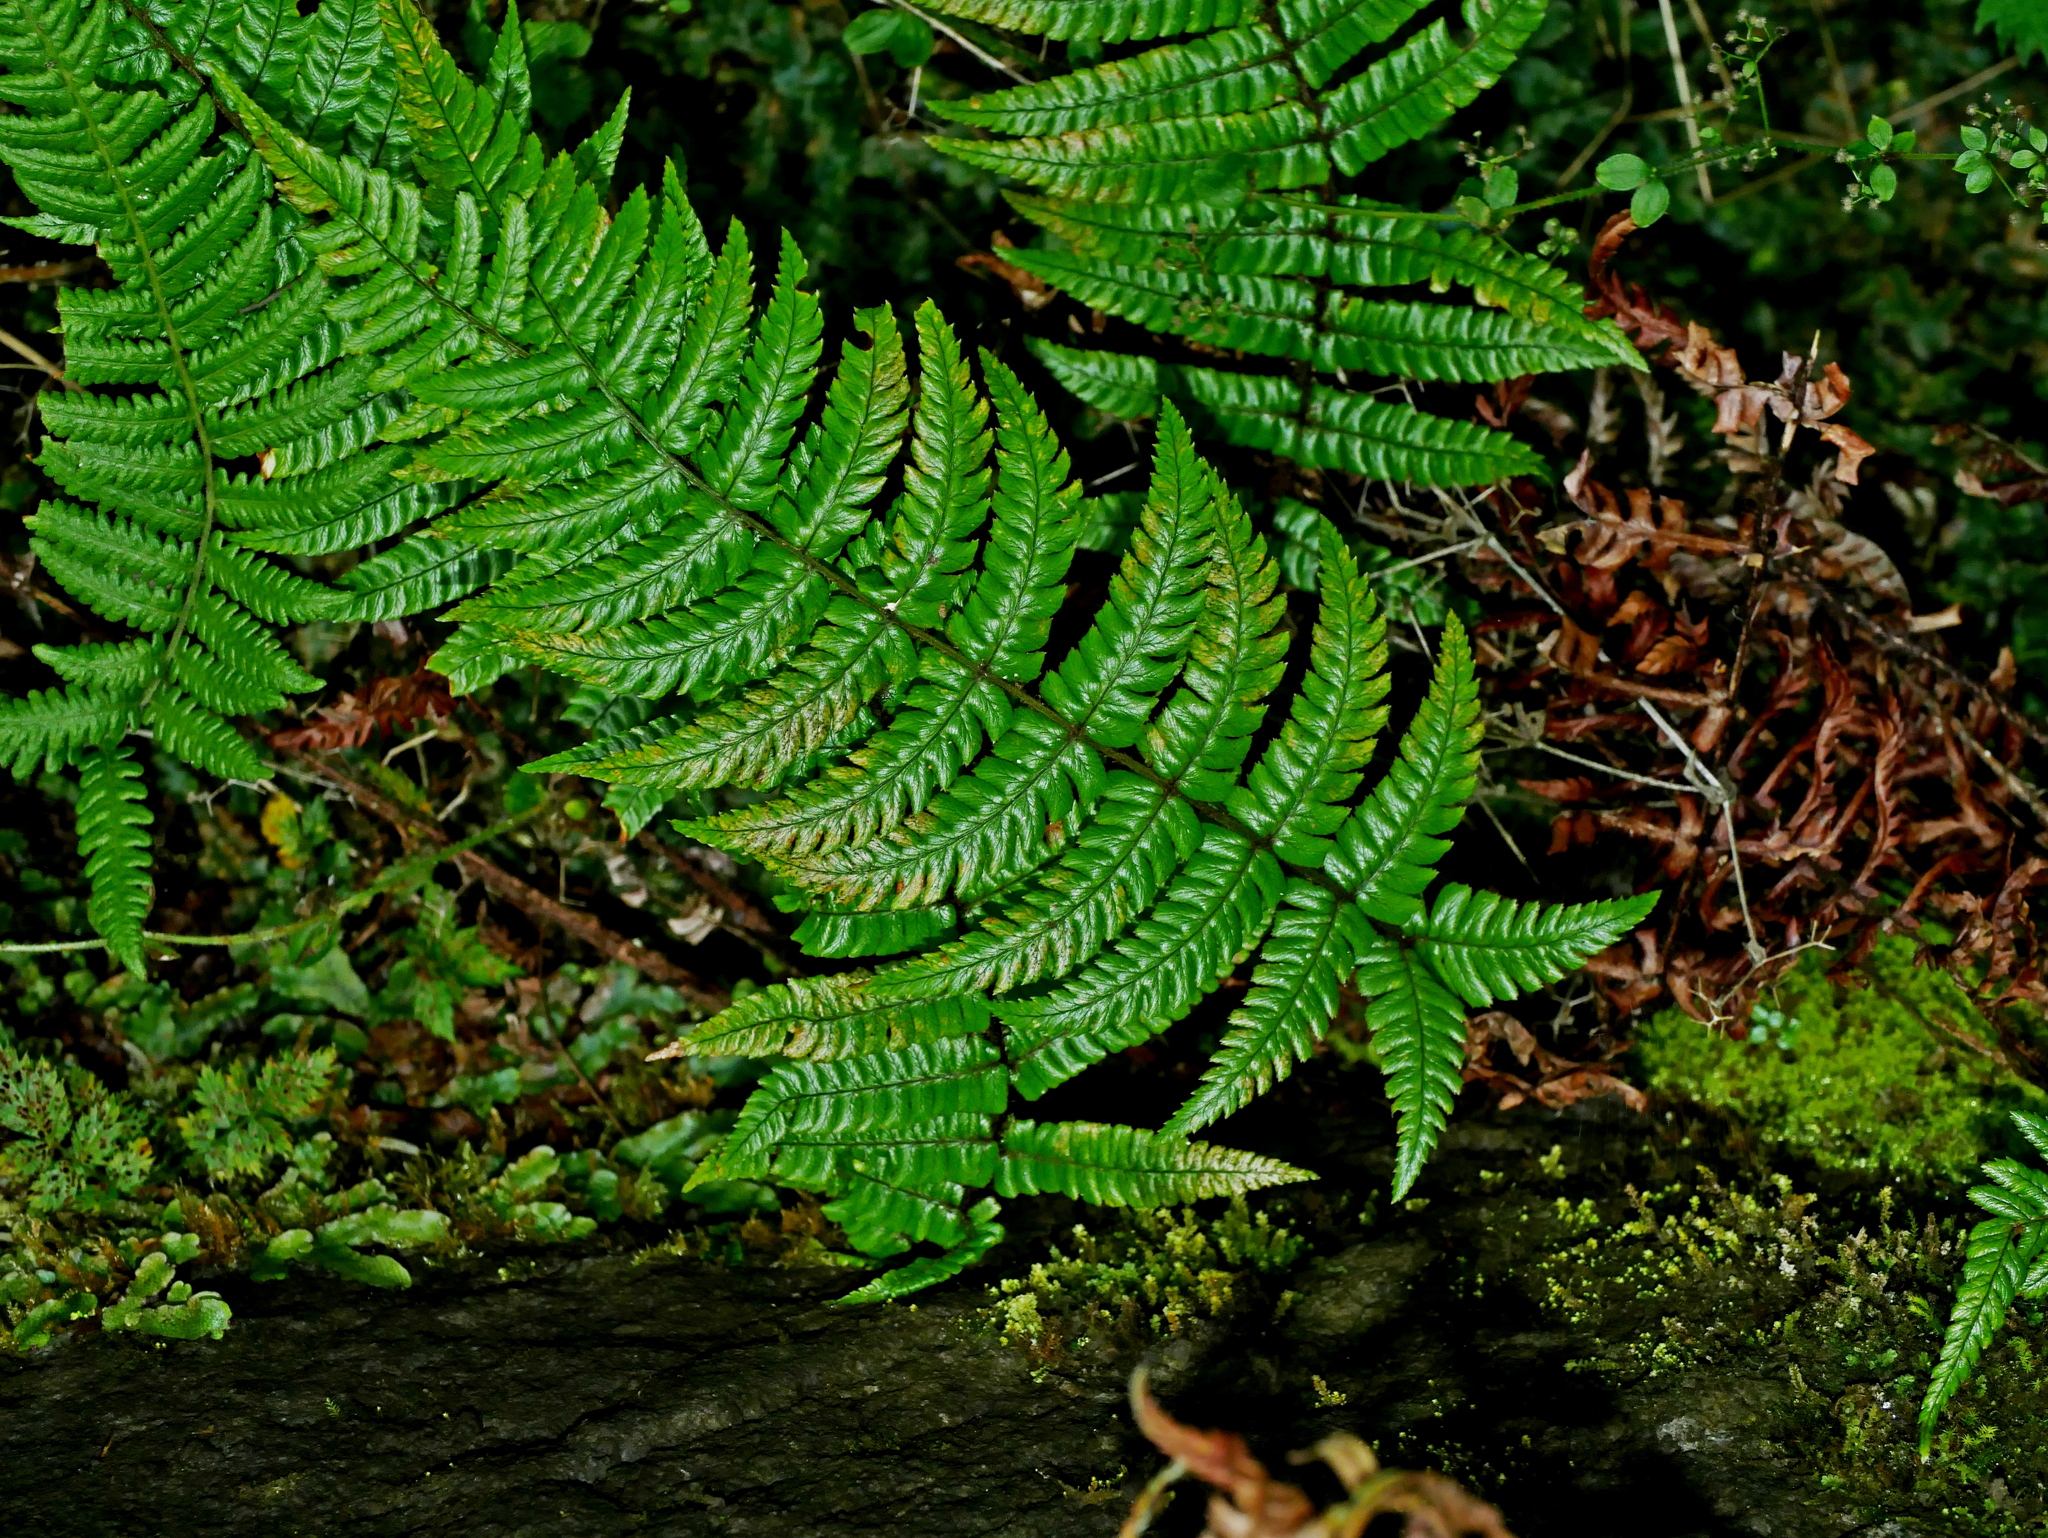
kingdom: Plantae
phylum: Tracheophyta
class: Polypodiopsida
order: Polypodiales
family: Dryopteridaceae
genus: Dryopteris
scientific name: Dryopteris lepidopoda
